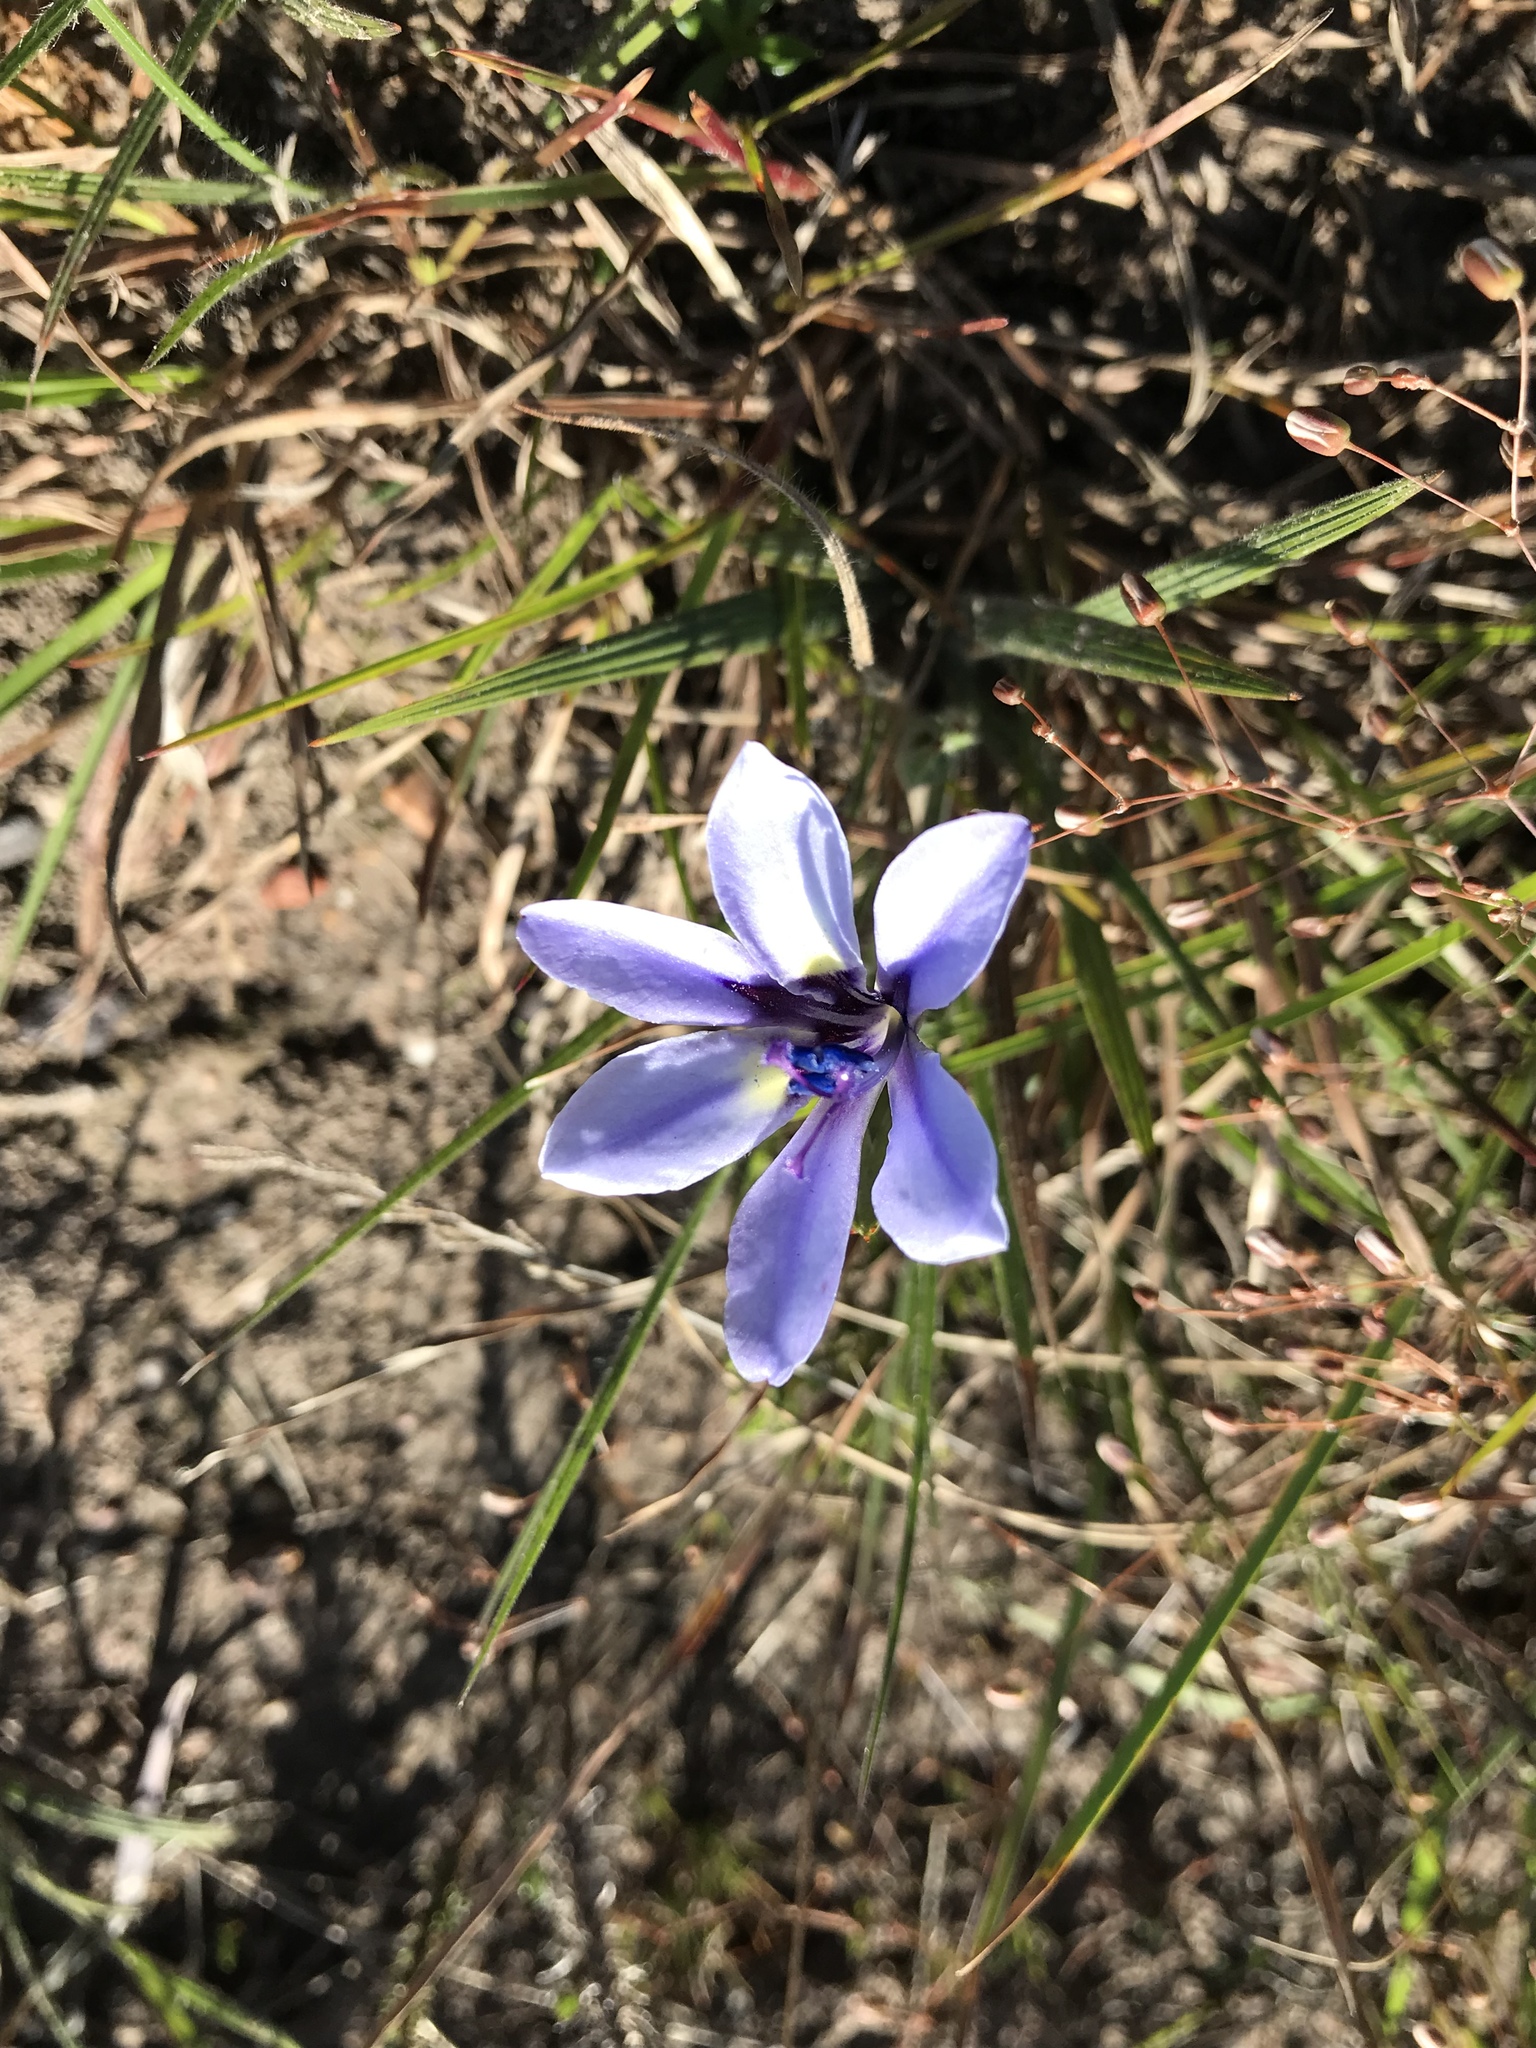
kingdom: Plantae
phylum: Tracheophyta
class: Liliopsida
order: Asparagales
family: Iridaceae
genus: Babiana
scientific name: Babiana patersoniae
